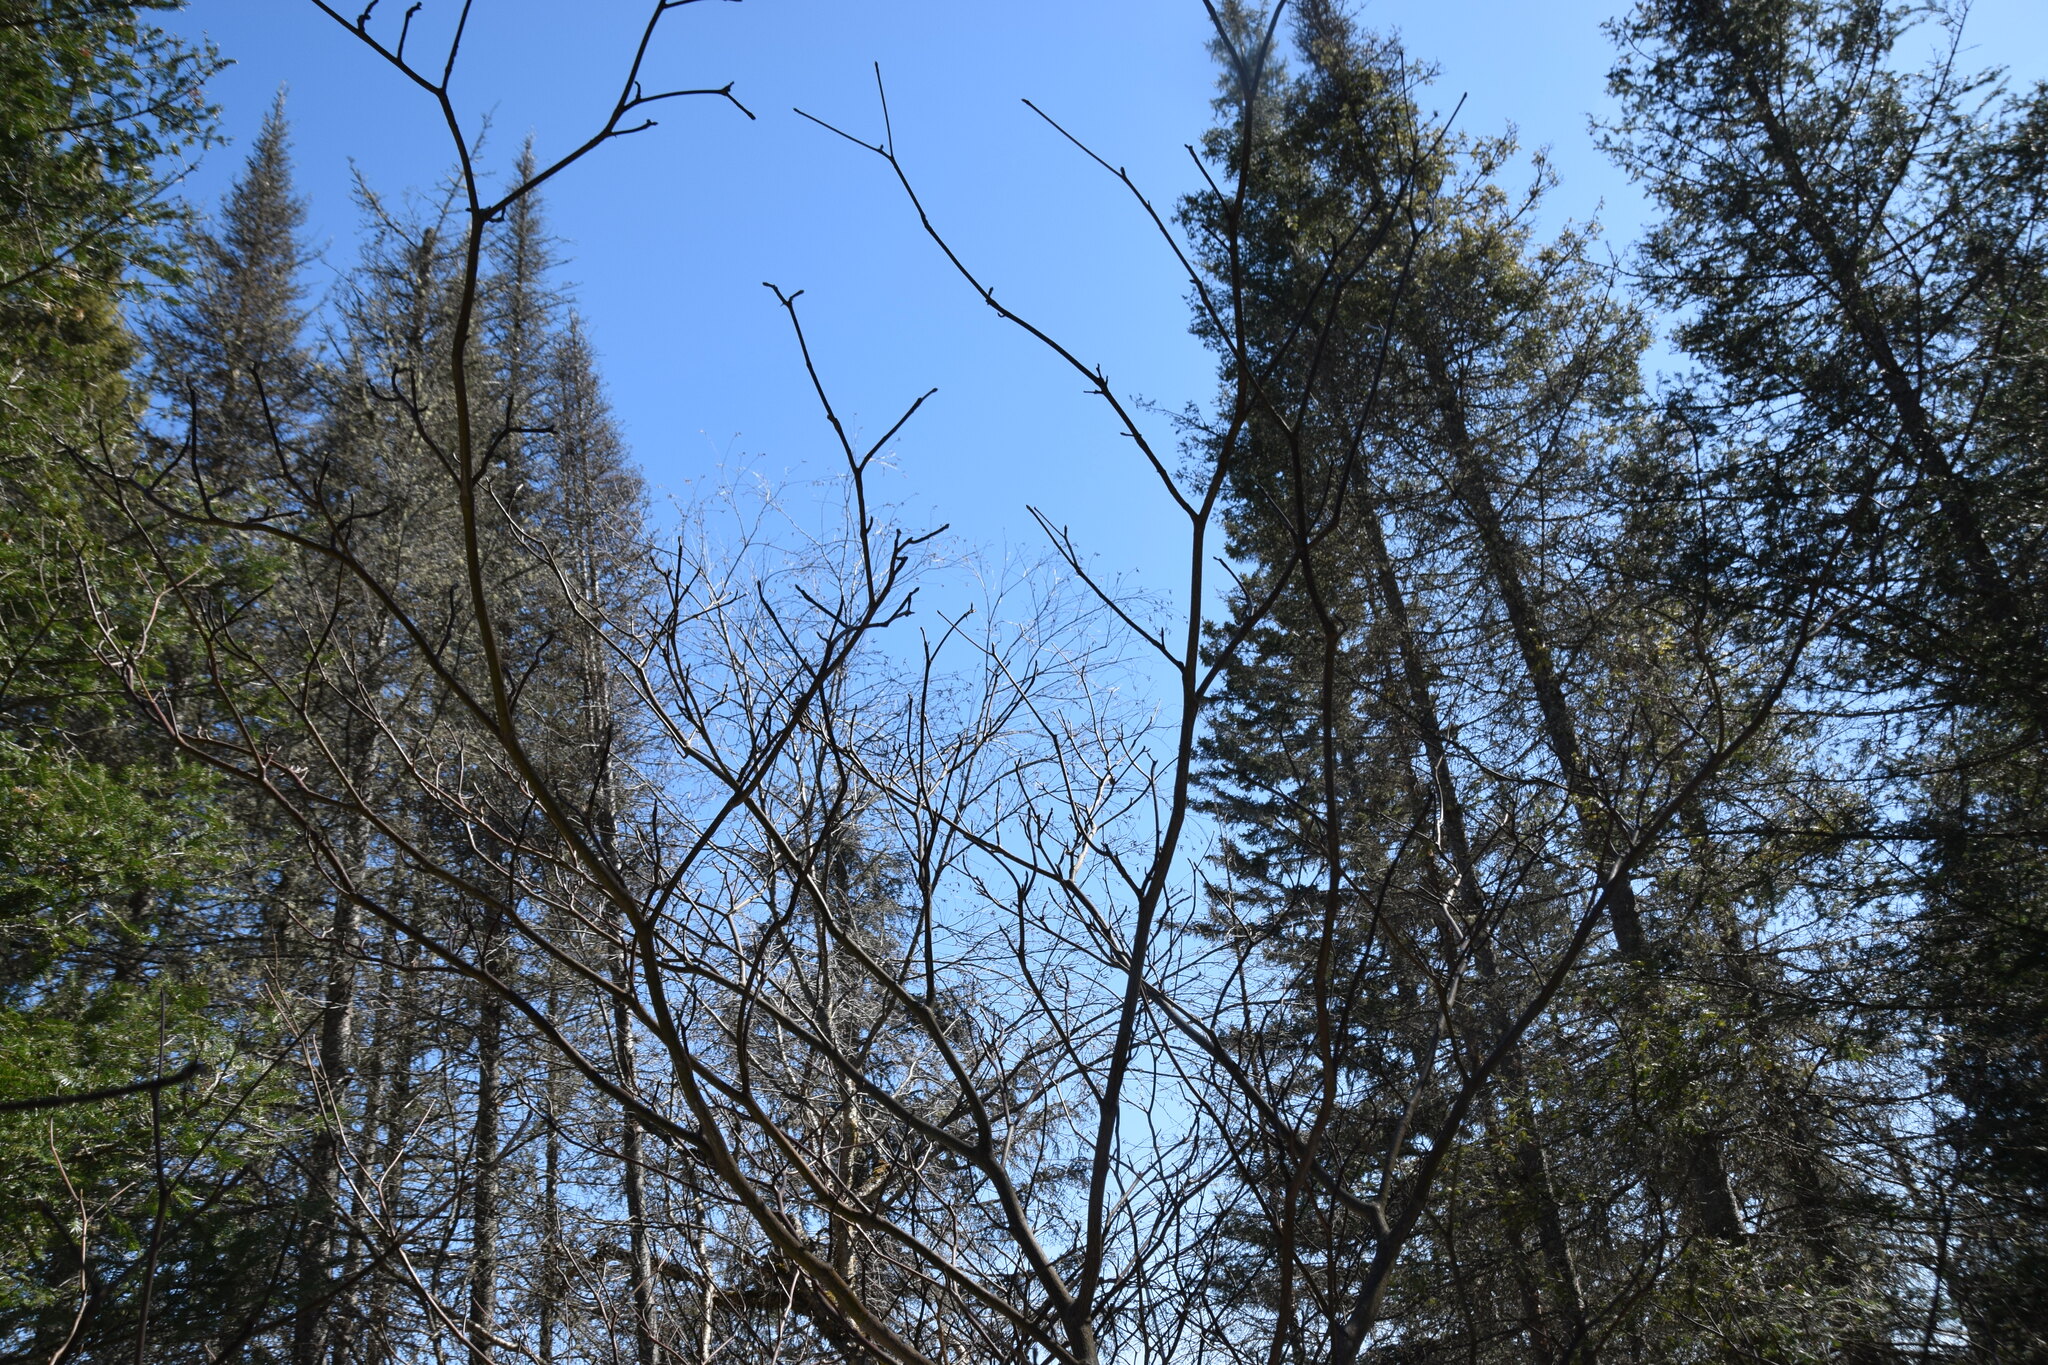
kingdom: Plantae
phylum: Tracheophyta
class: Magnoliopsida
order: Cornales
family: Cornaceae
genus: Cornus
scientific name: Cornus alternifolia
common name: Pagoda dogwood
